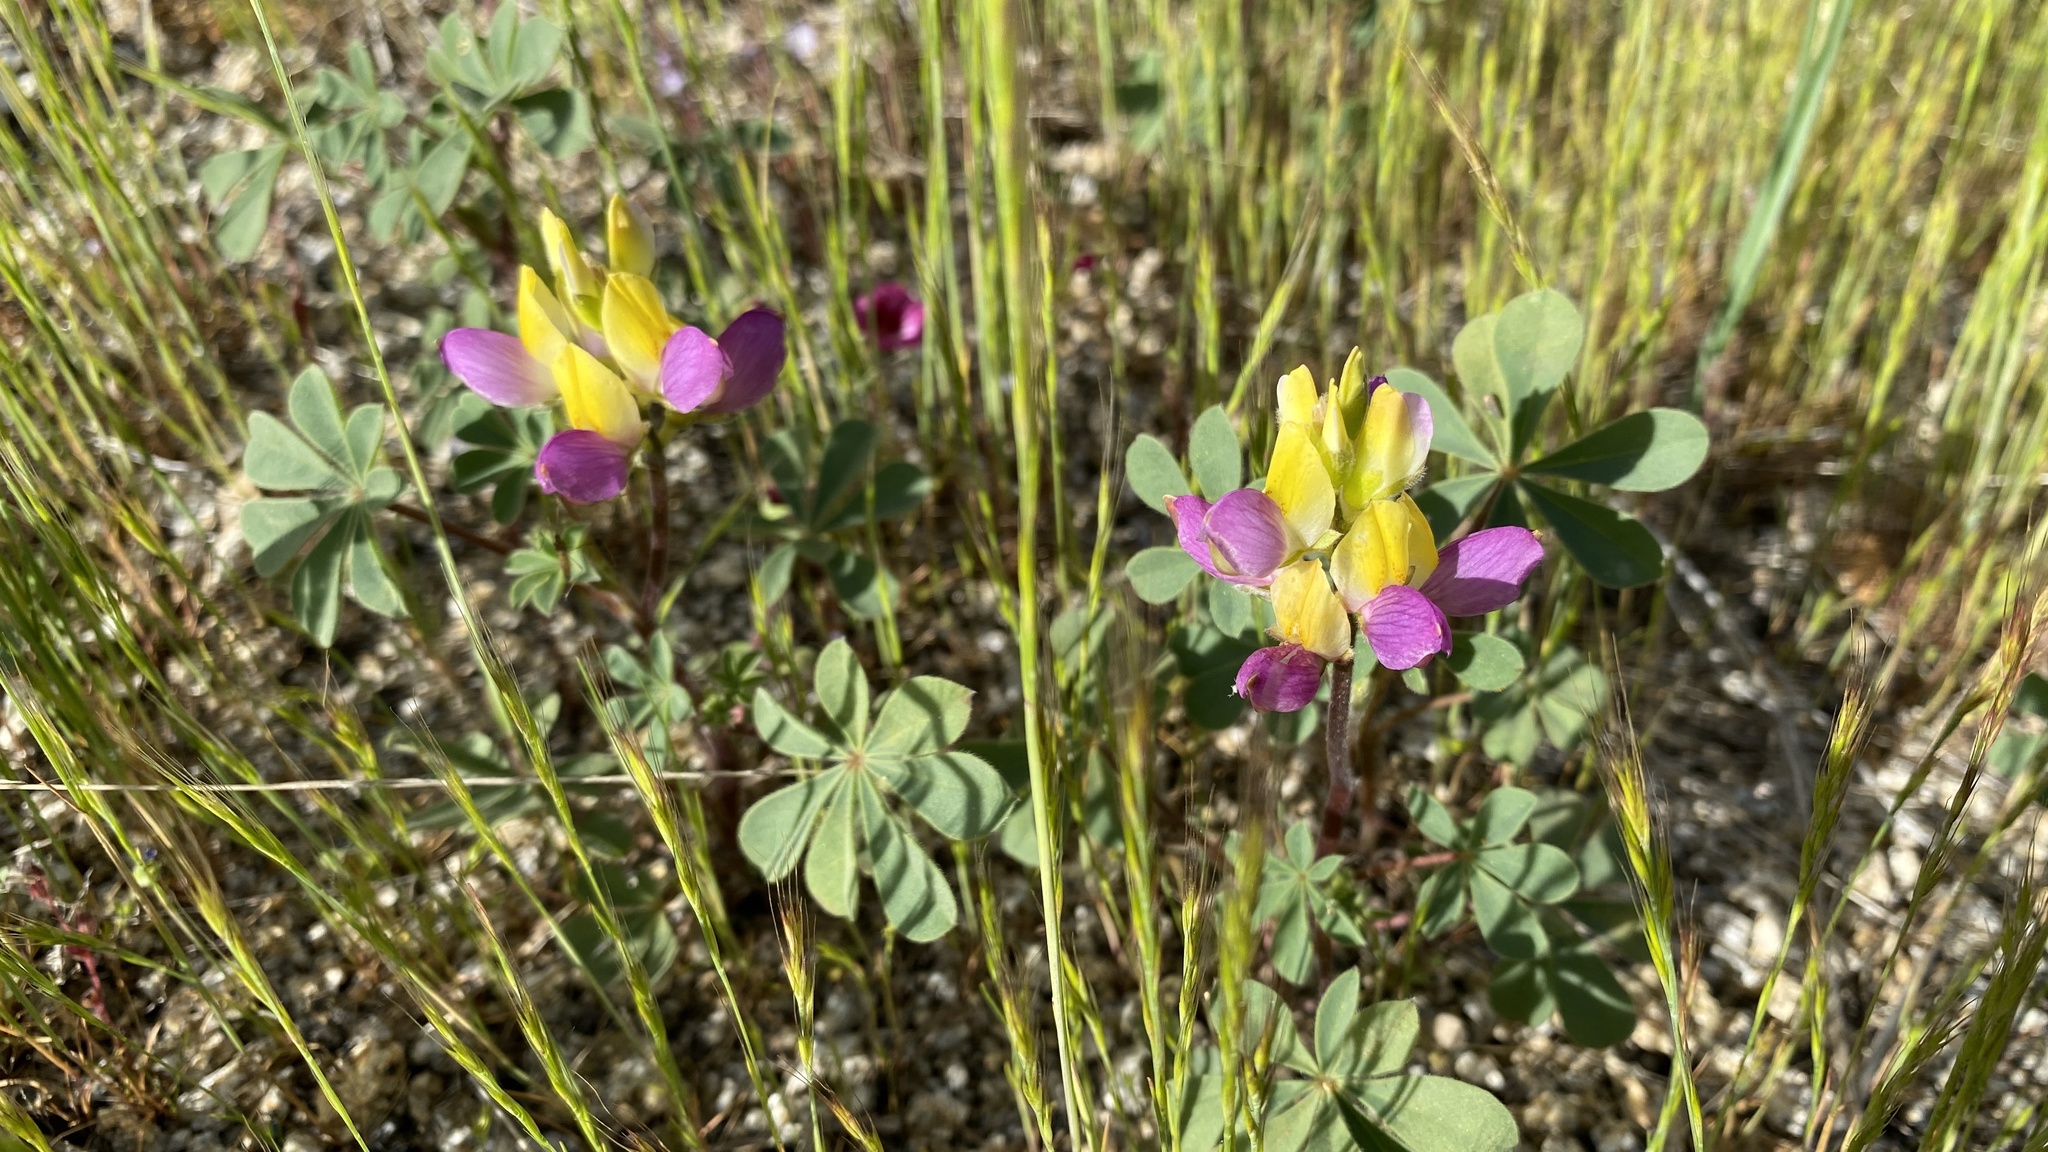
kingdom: Plantae
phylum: Tracheophyta
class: Magnoliopsida
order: Fabales
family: Fabaceae
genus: Lupinus
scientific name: Lupinus stiversii
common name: Harlequin lupine
